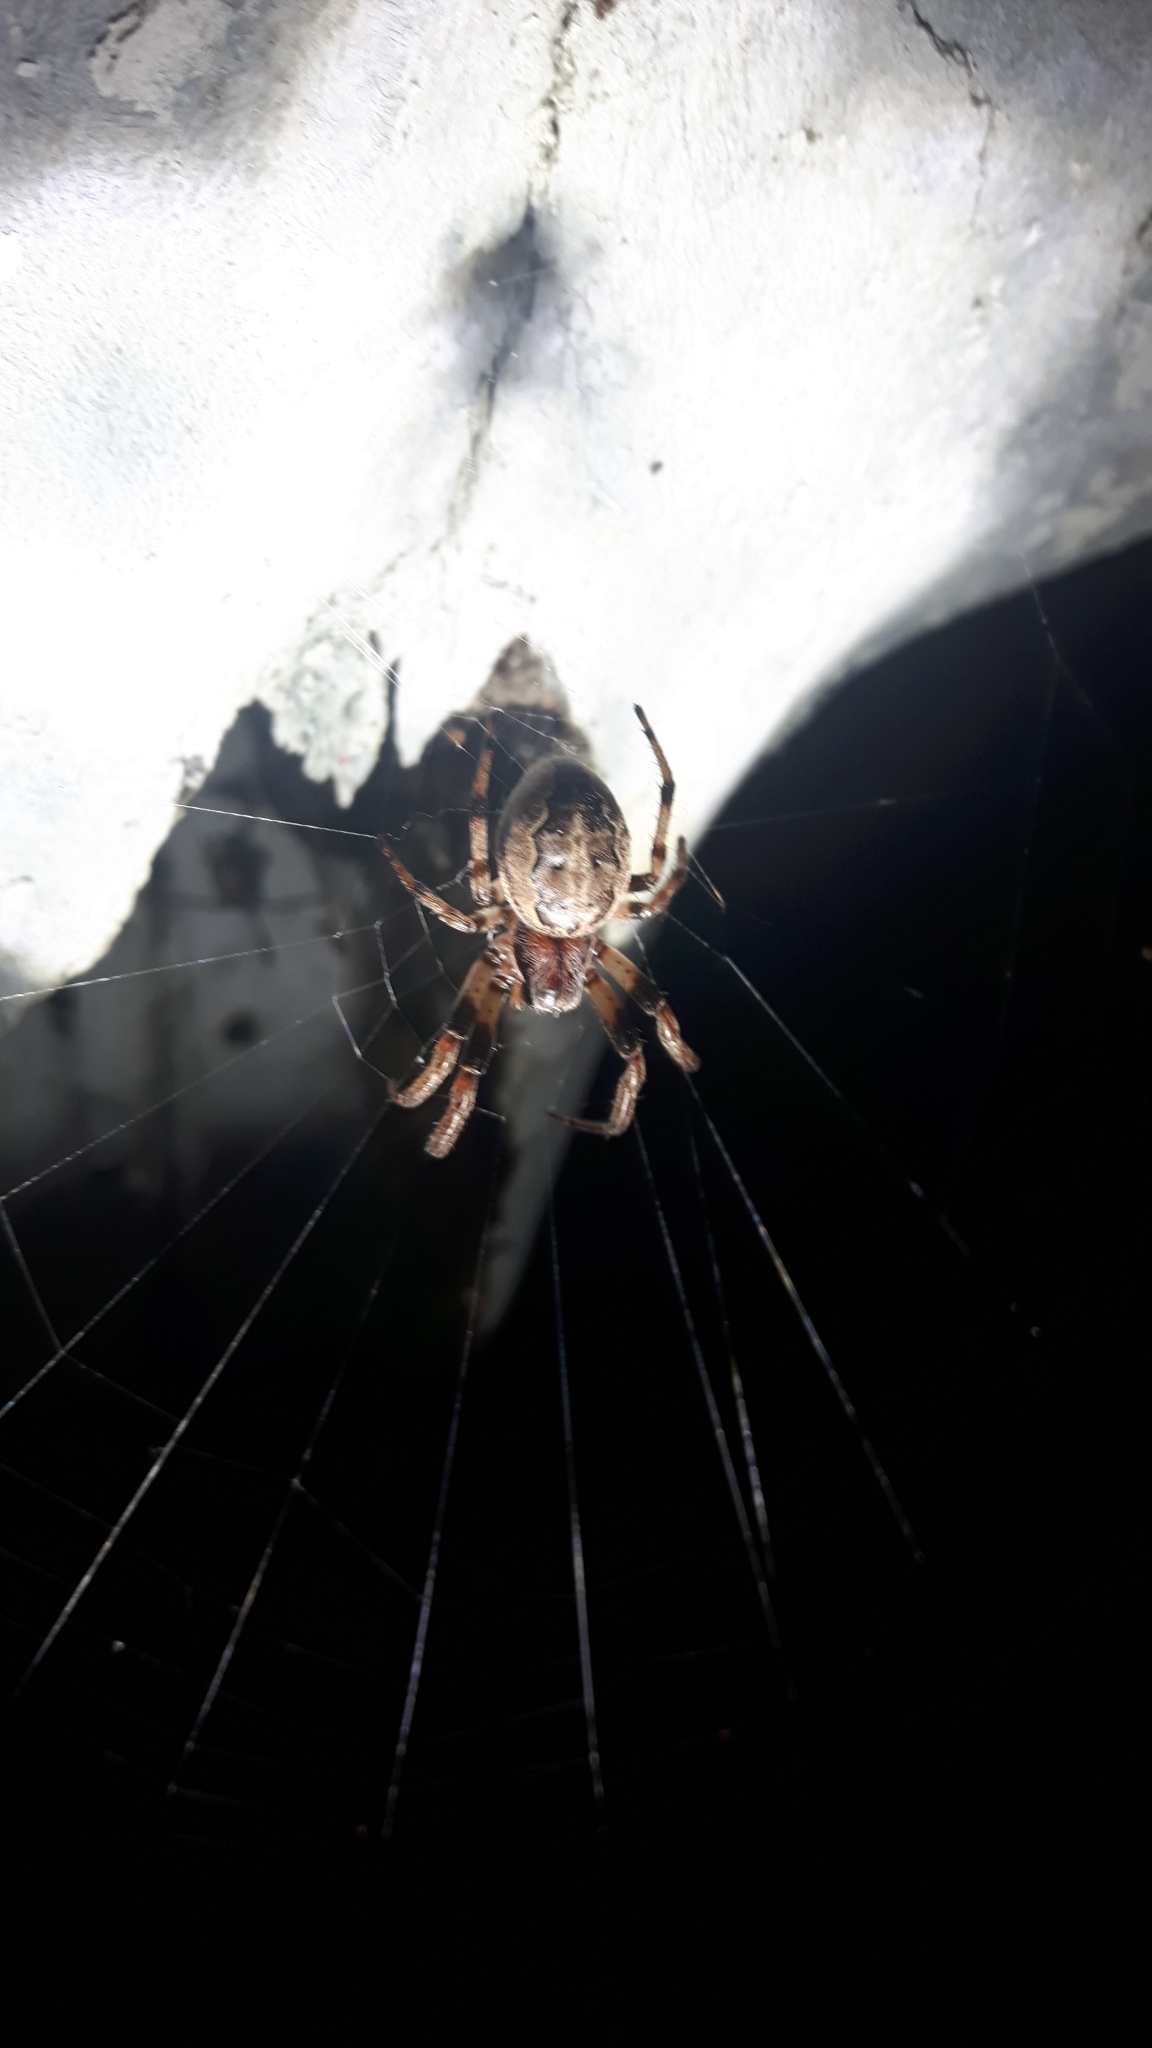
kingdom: Animalia
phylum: Arthropoda
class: Arachnida
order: Araneae
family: Araneidae
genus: Larinioides
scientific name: Larinioides cornutus
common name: Furrow orbweaver
